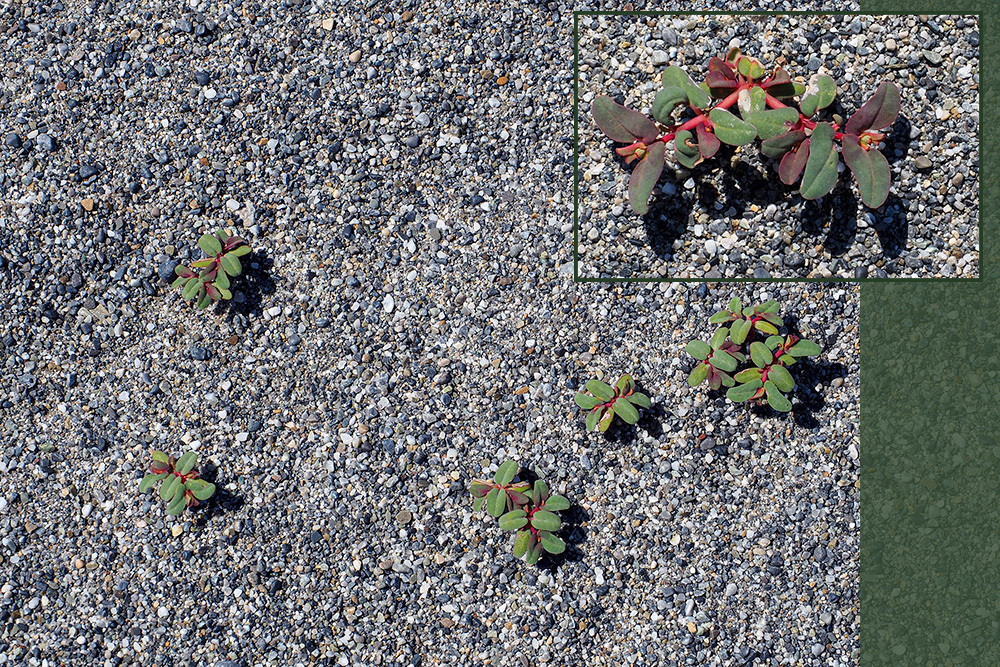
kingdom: Plantae
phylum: Tracheophyta
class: Magnoliopsida
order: Malpighiales
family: Euphorbiaceae
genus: Euphorbia
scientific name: Euphorbia peplis
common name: Purple spurge
